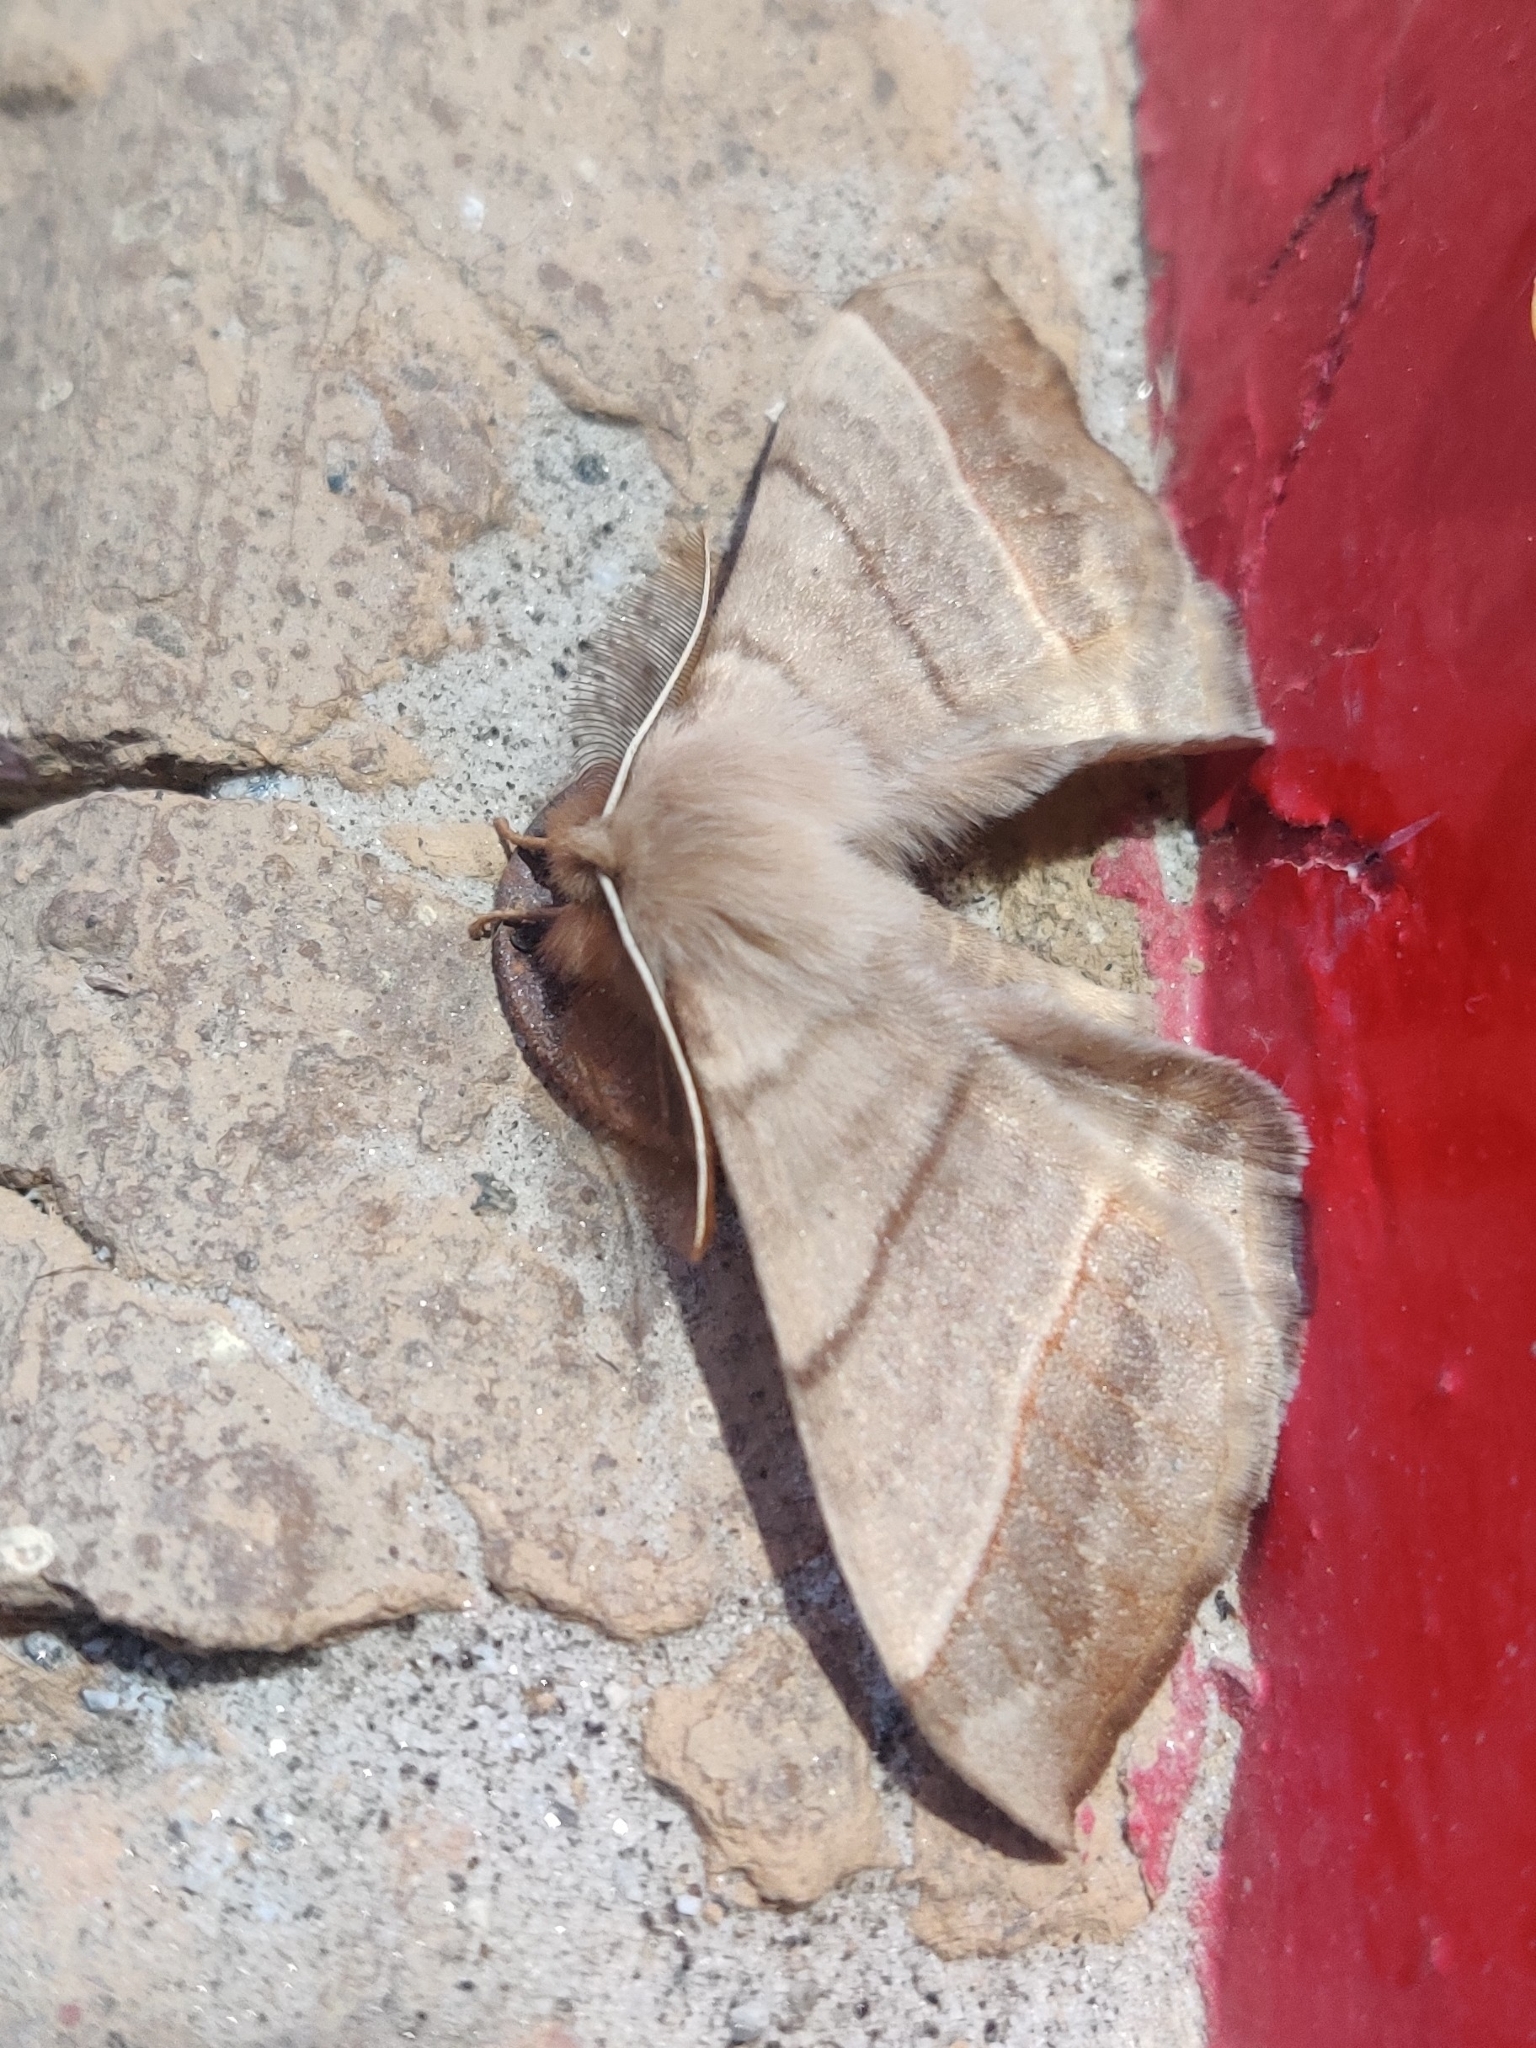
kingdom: Animalia
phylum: Arthropoda
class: Insecta
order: Lepidoptera
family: Eupterotidae
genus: Apona
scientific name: Apona caschmirensis
